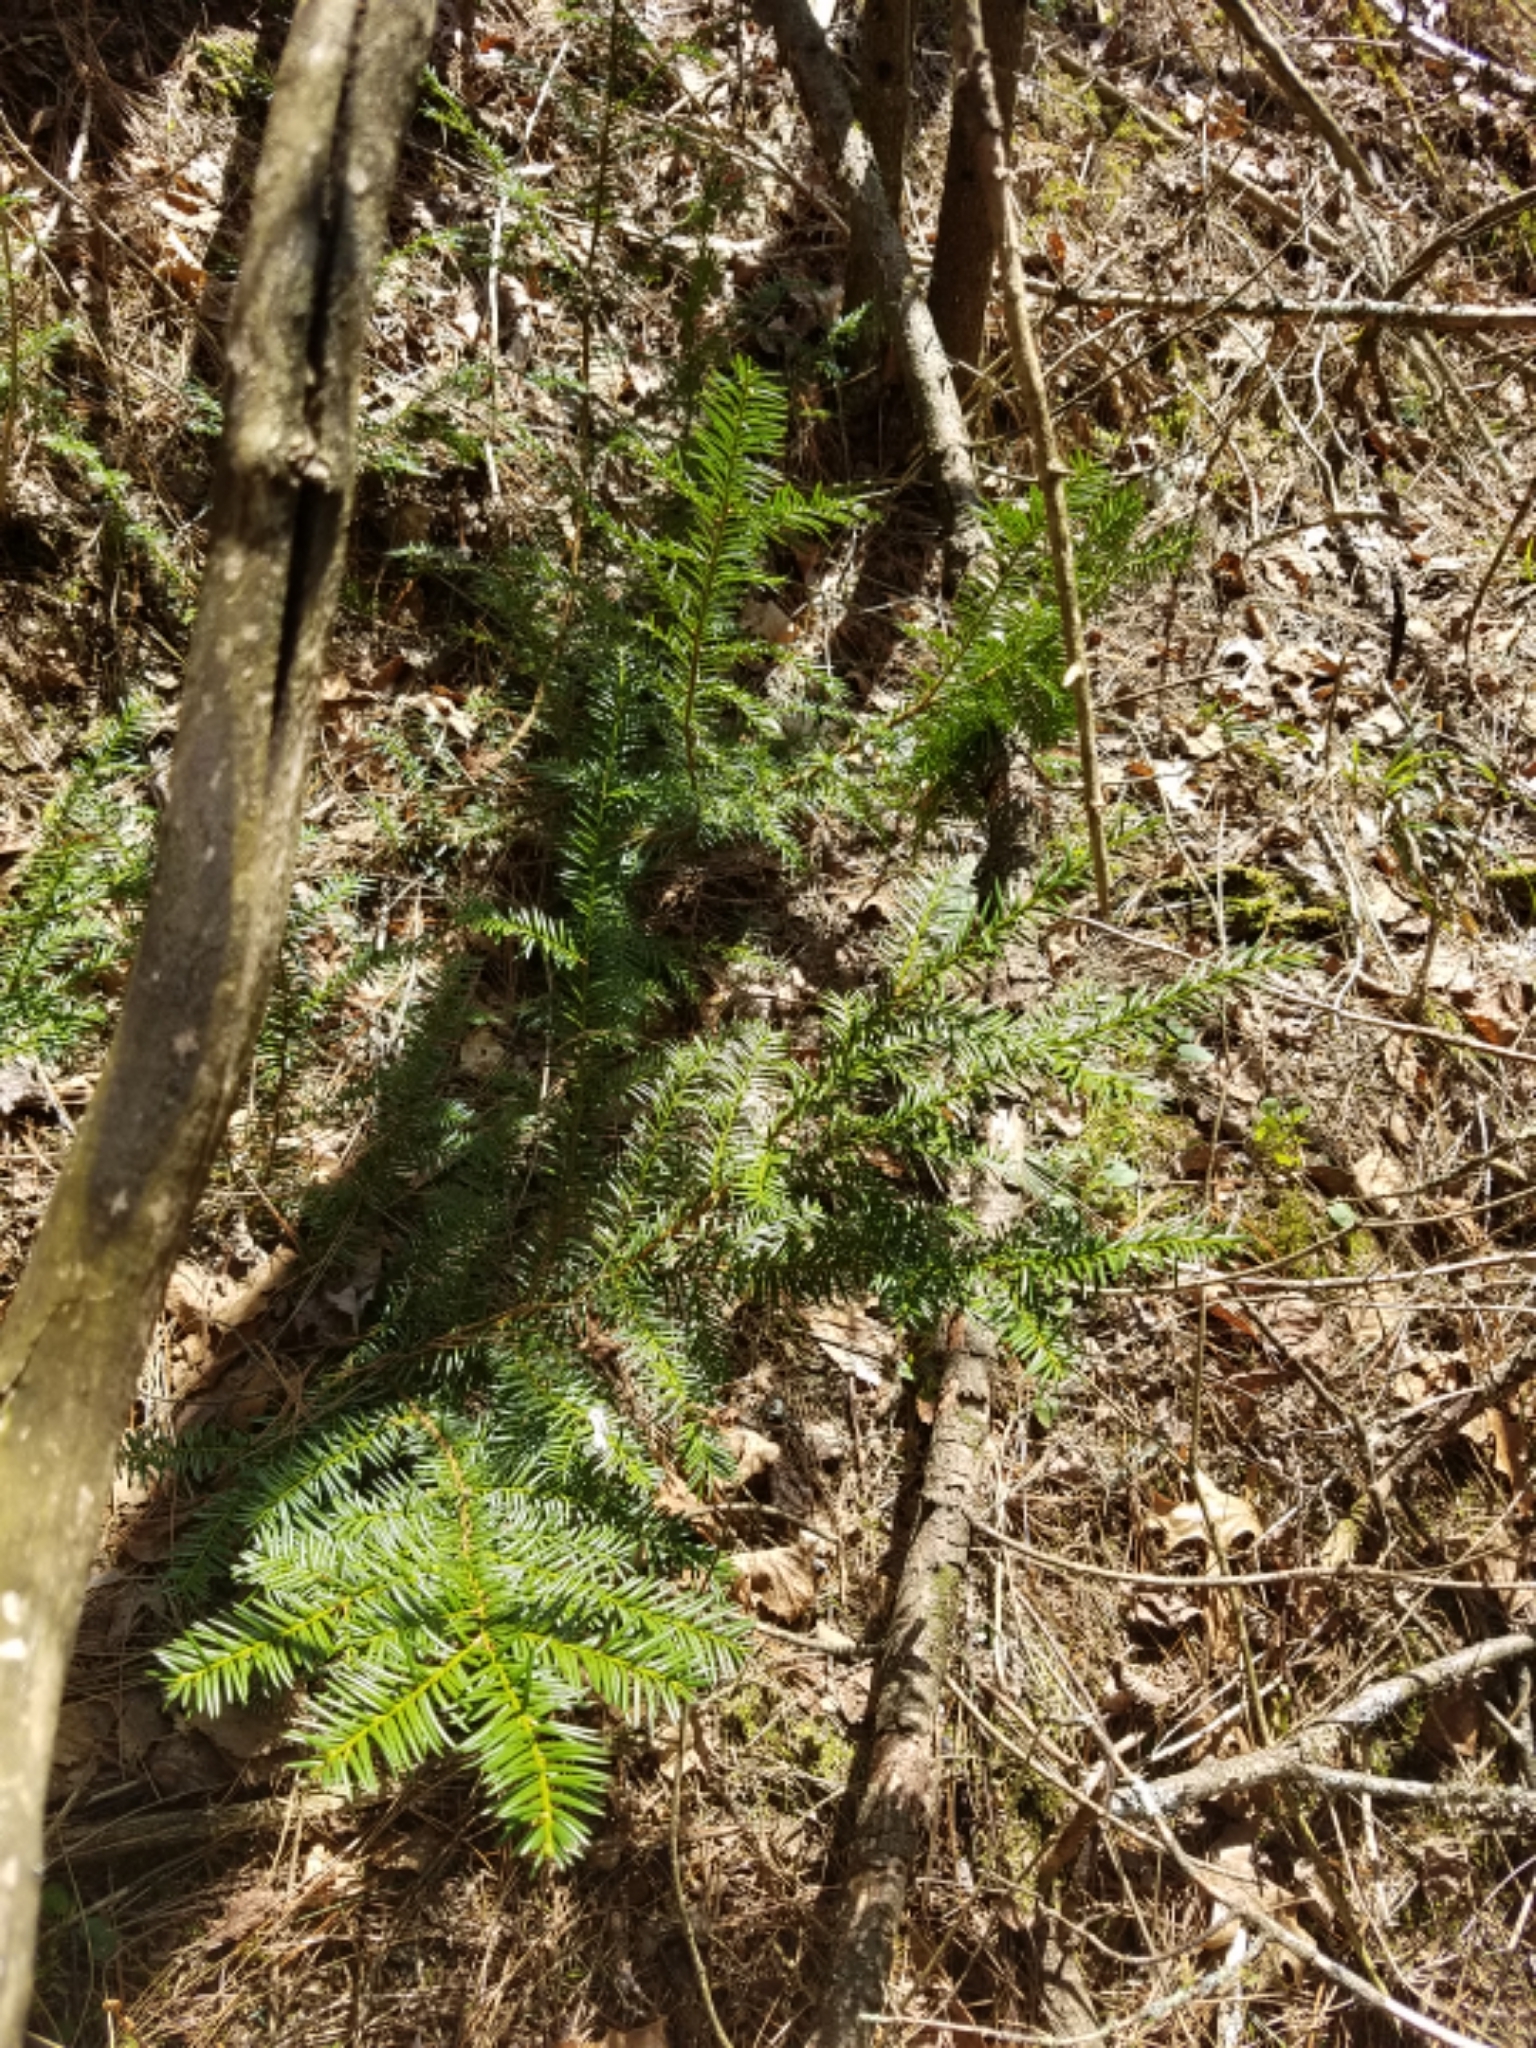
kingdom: Plantae
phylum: Tracheophyta
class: Pinopsida
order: Pinales
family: Taxaceae
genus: Taxus
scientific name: Taxus canadensis
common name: American yew
